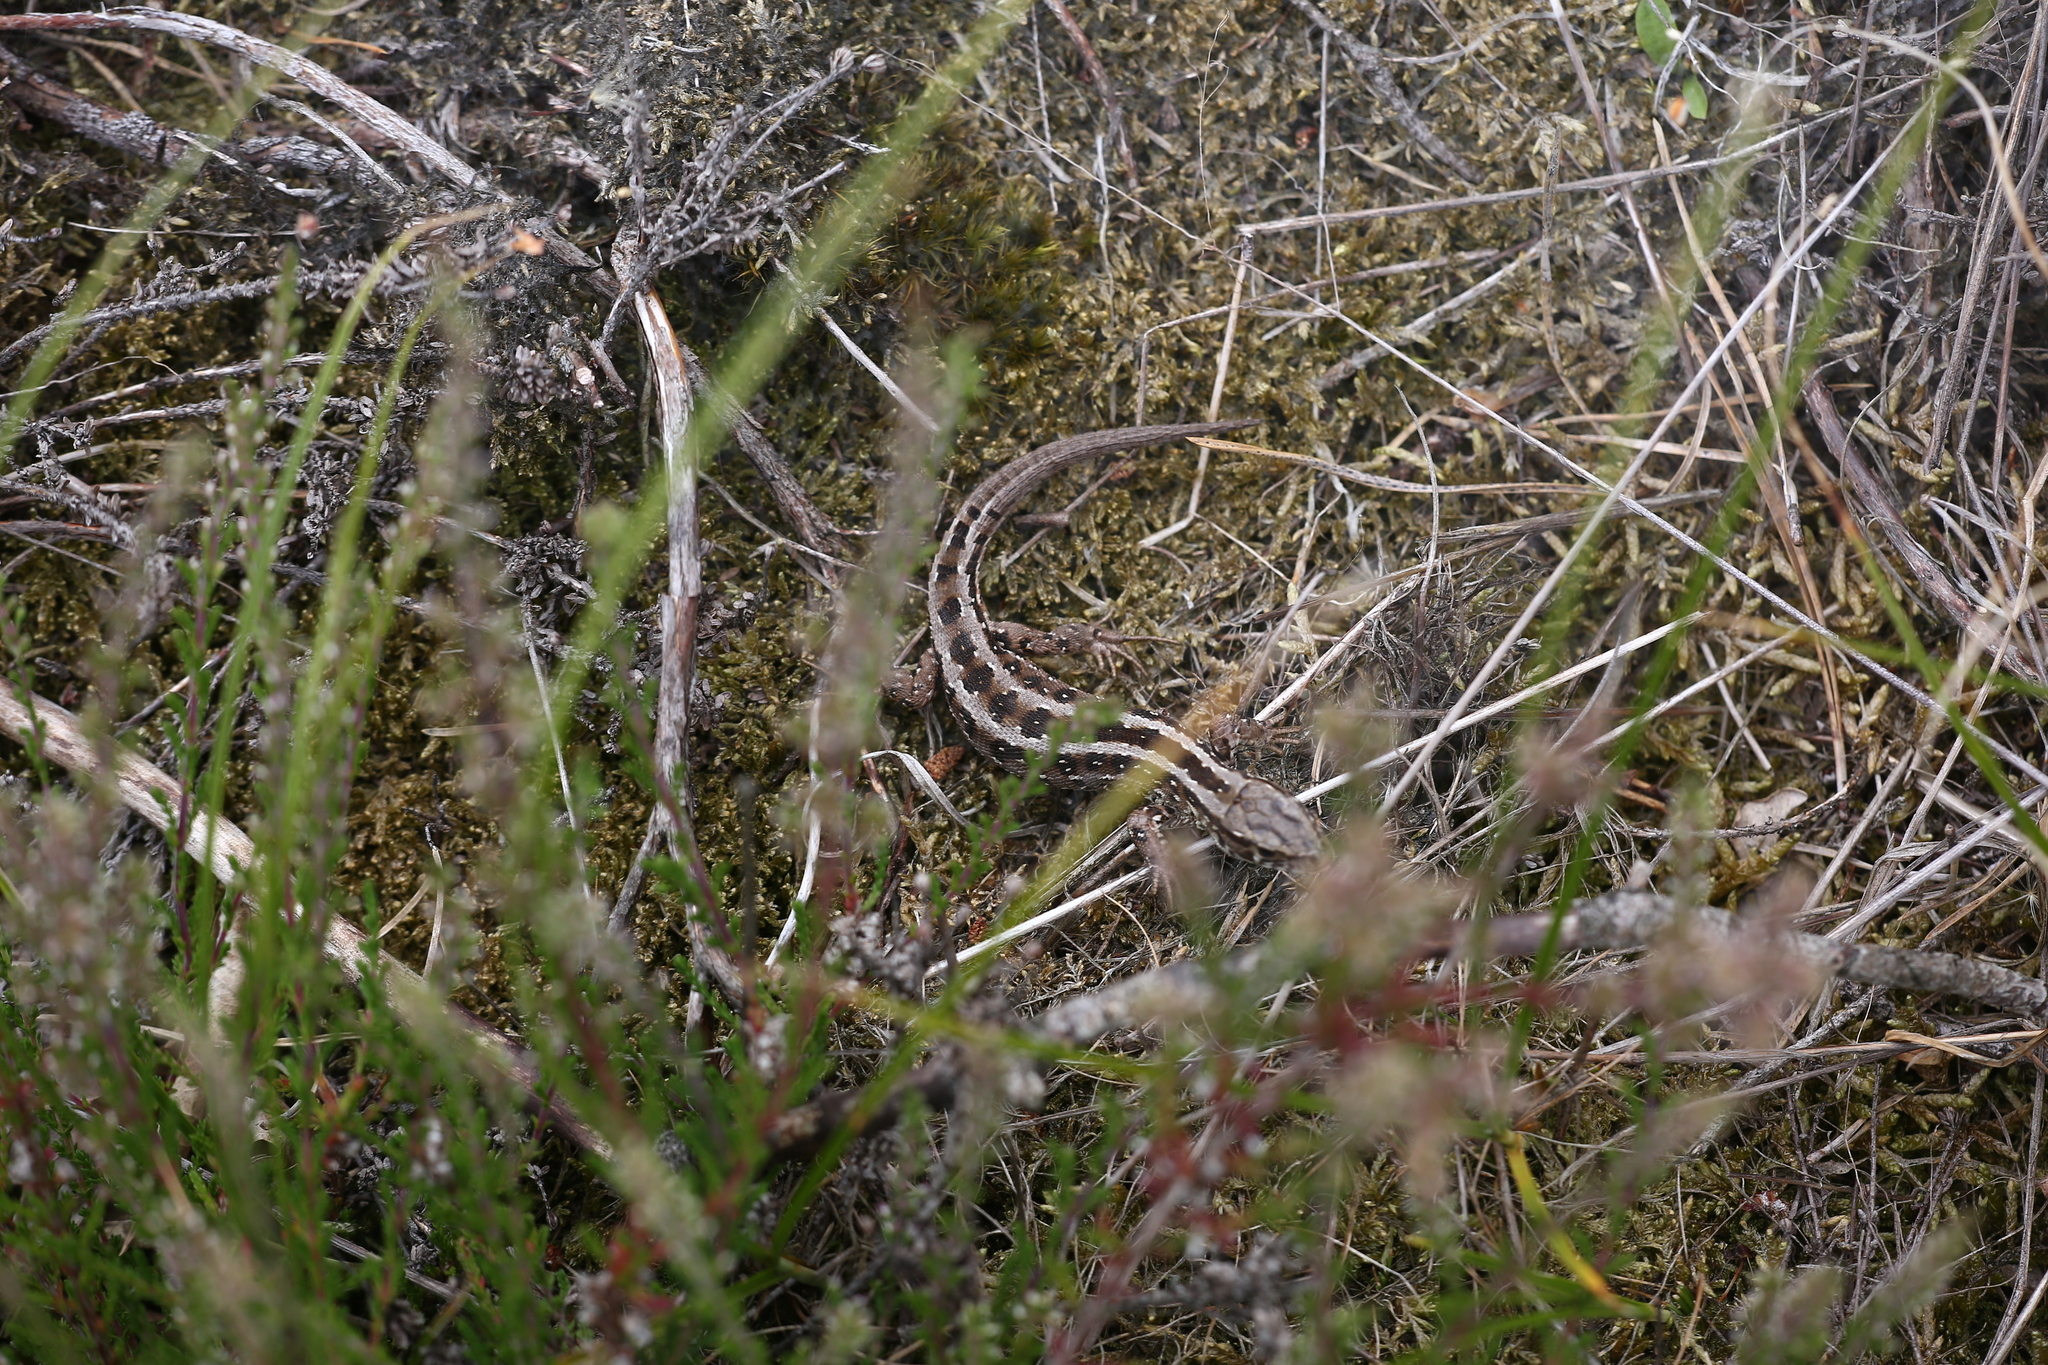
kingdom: Animalia
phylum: Chordata
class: Squamata
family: Lacertidae
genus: Lacerta
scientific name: Lacerta agilis
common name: Sand lizard
